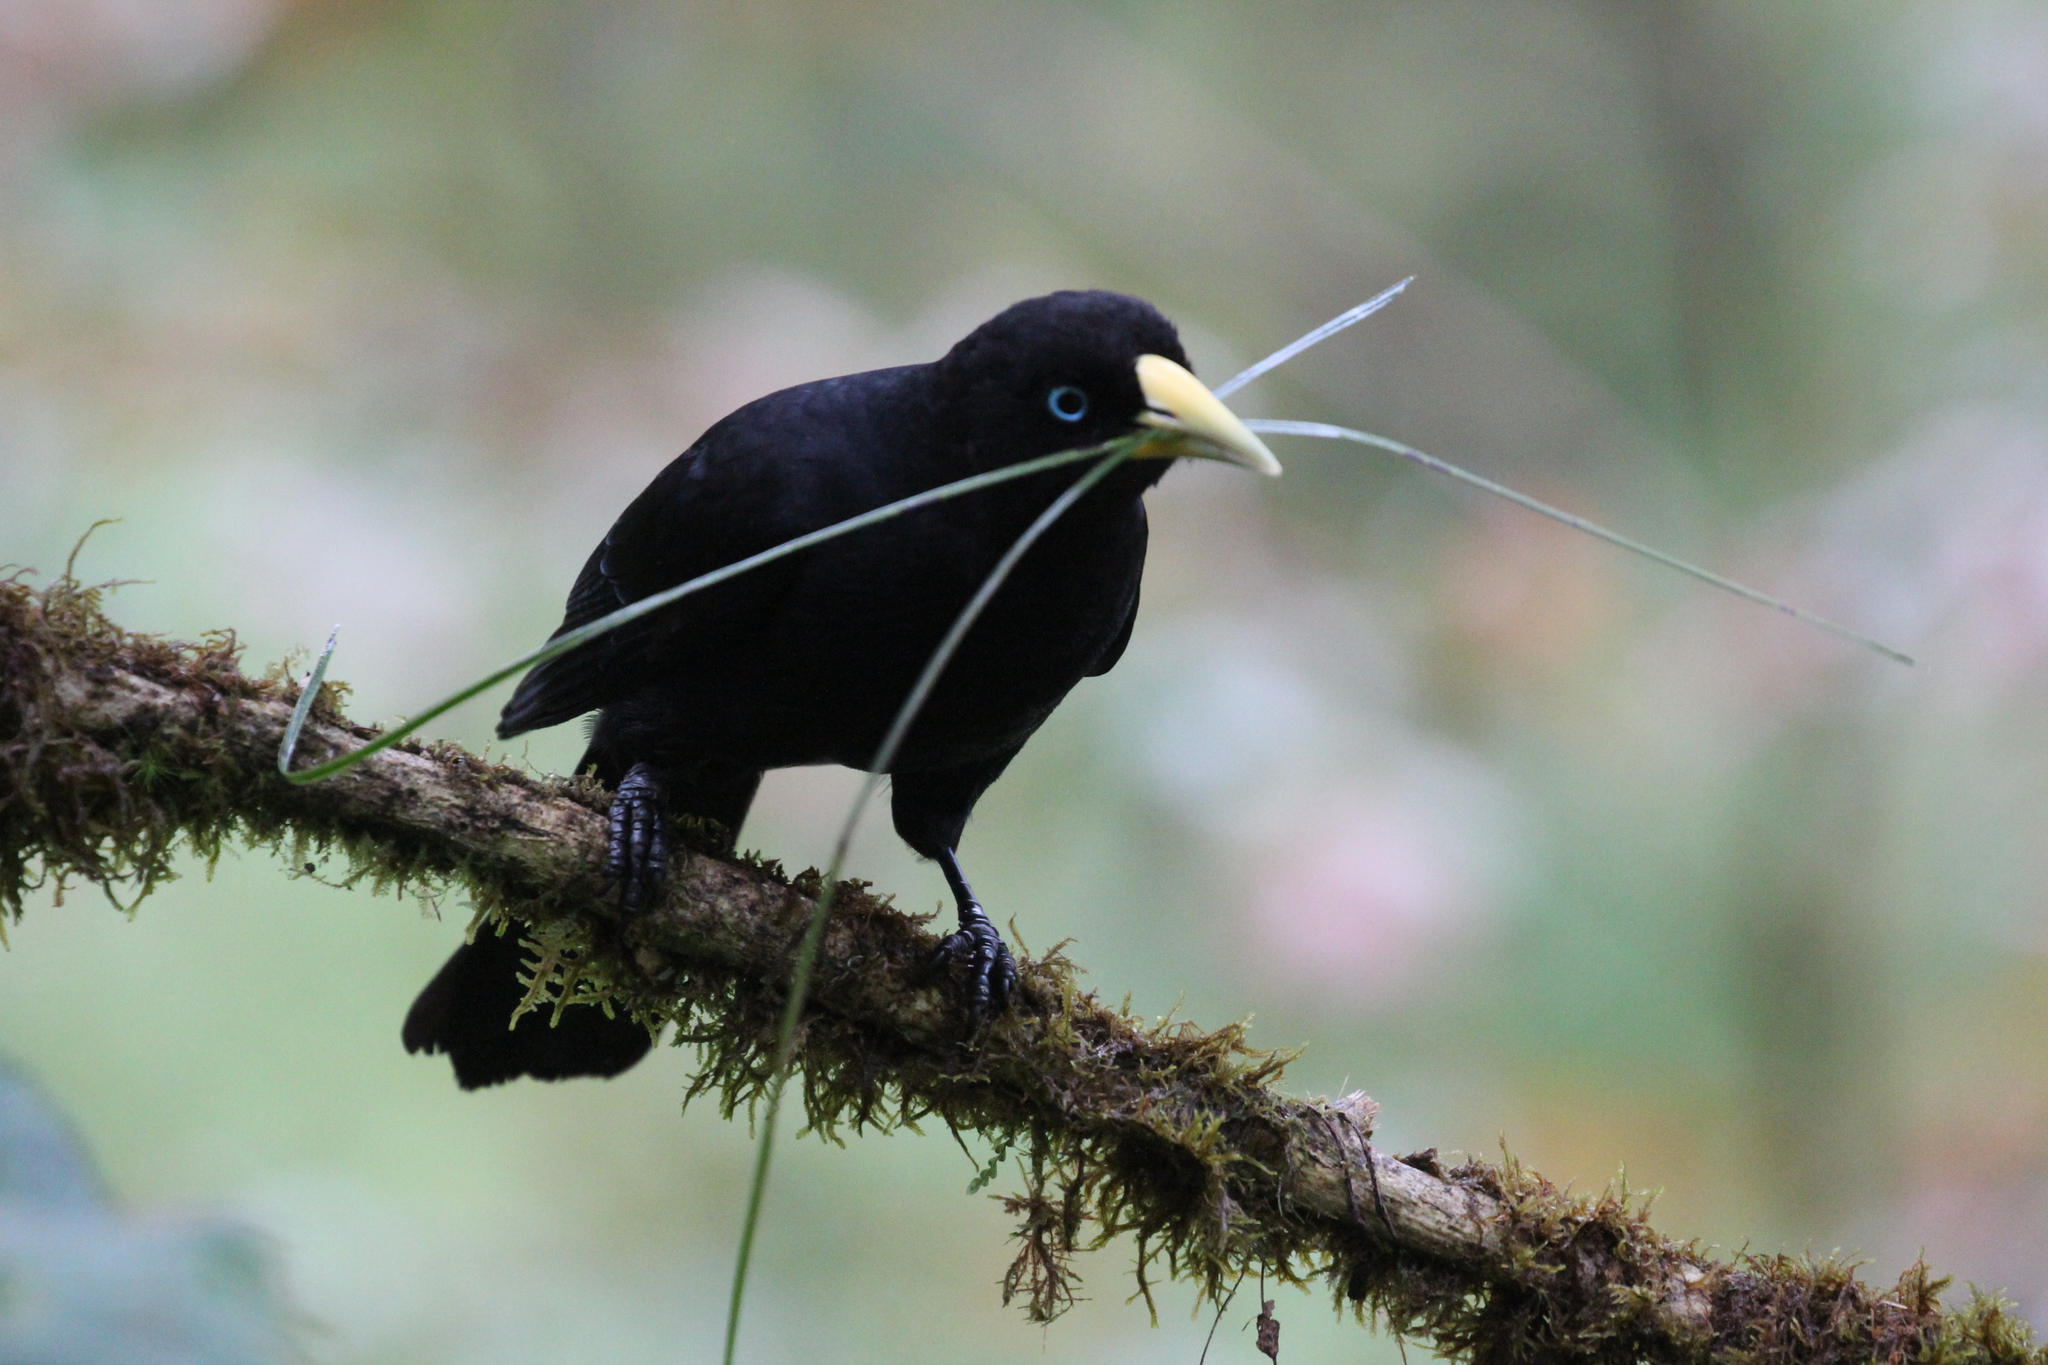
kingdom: Animalia
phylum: Chordata
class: Aves
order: Passeriformes
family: Icteridae
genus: Cacicus
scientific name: Cacicus uropygialis
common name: Scarlet-rumped cacique
